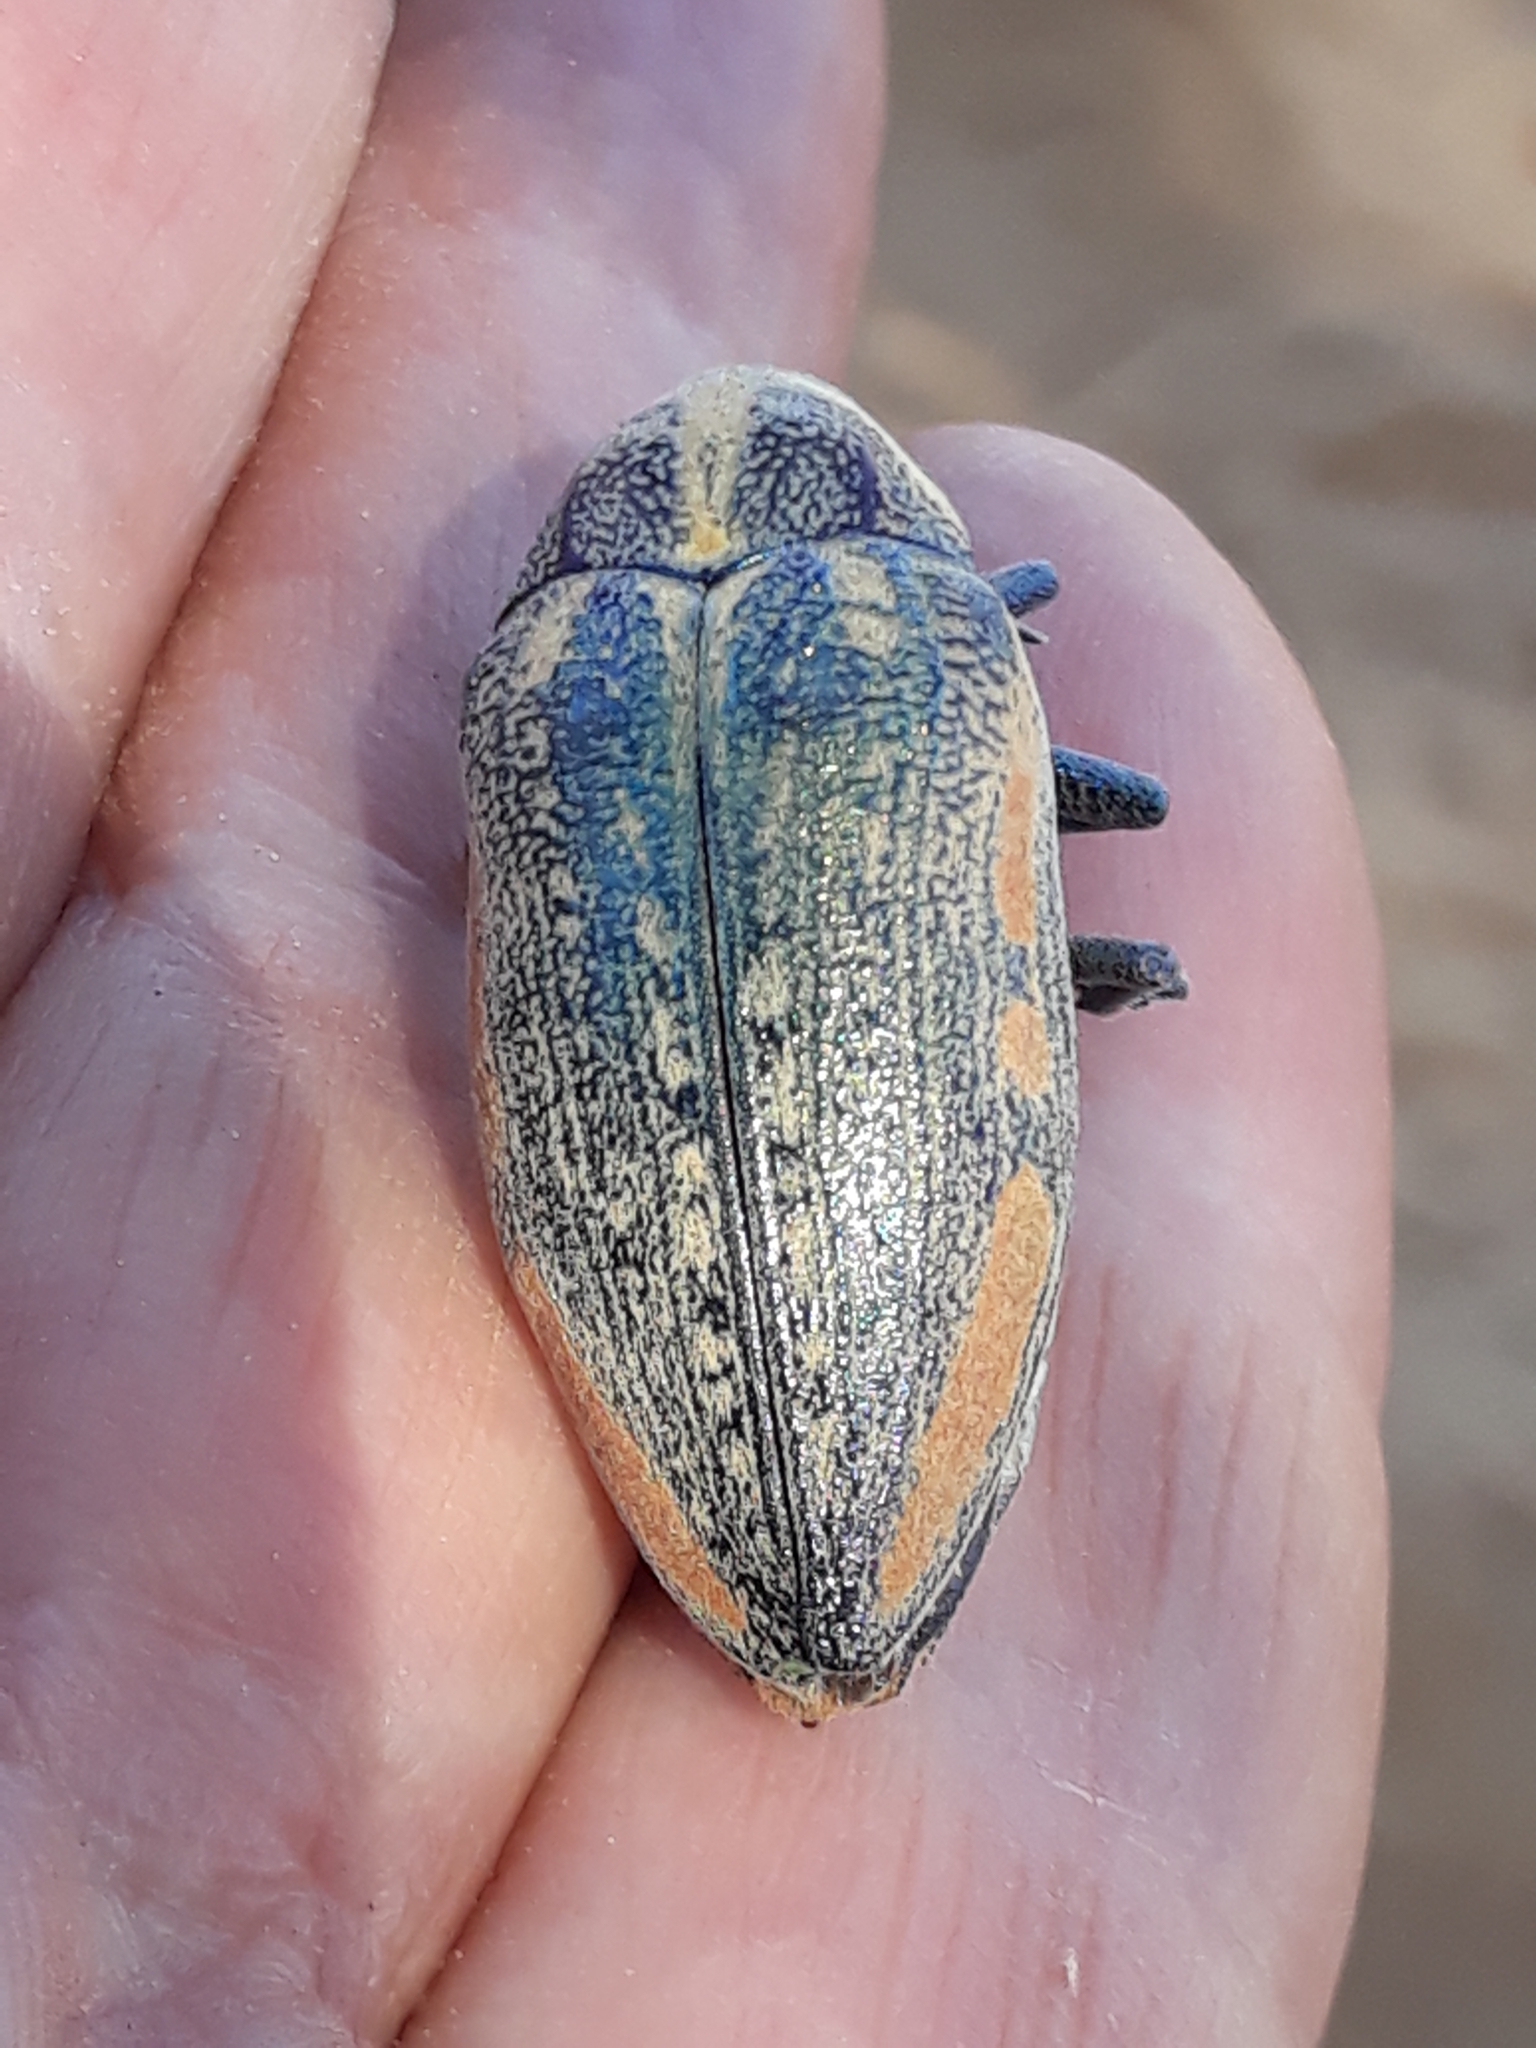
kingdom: Animalia
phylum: Arthropoda
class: Insecta
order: Coleoptera
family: Buprestidae
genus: Julodis
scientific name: Julodis fimbriata
